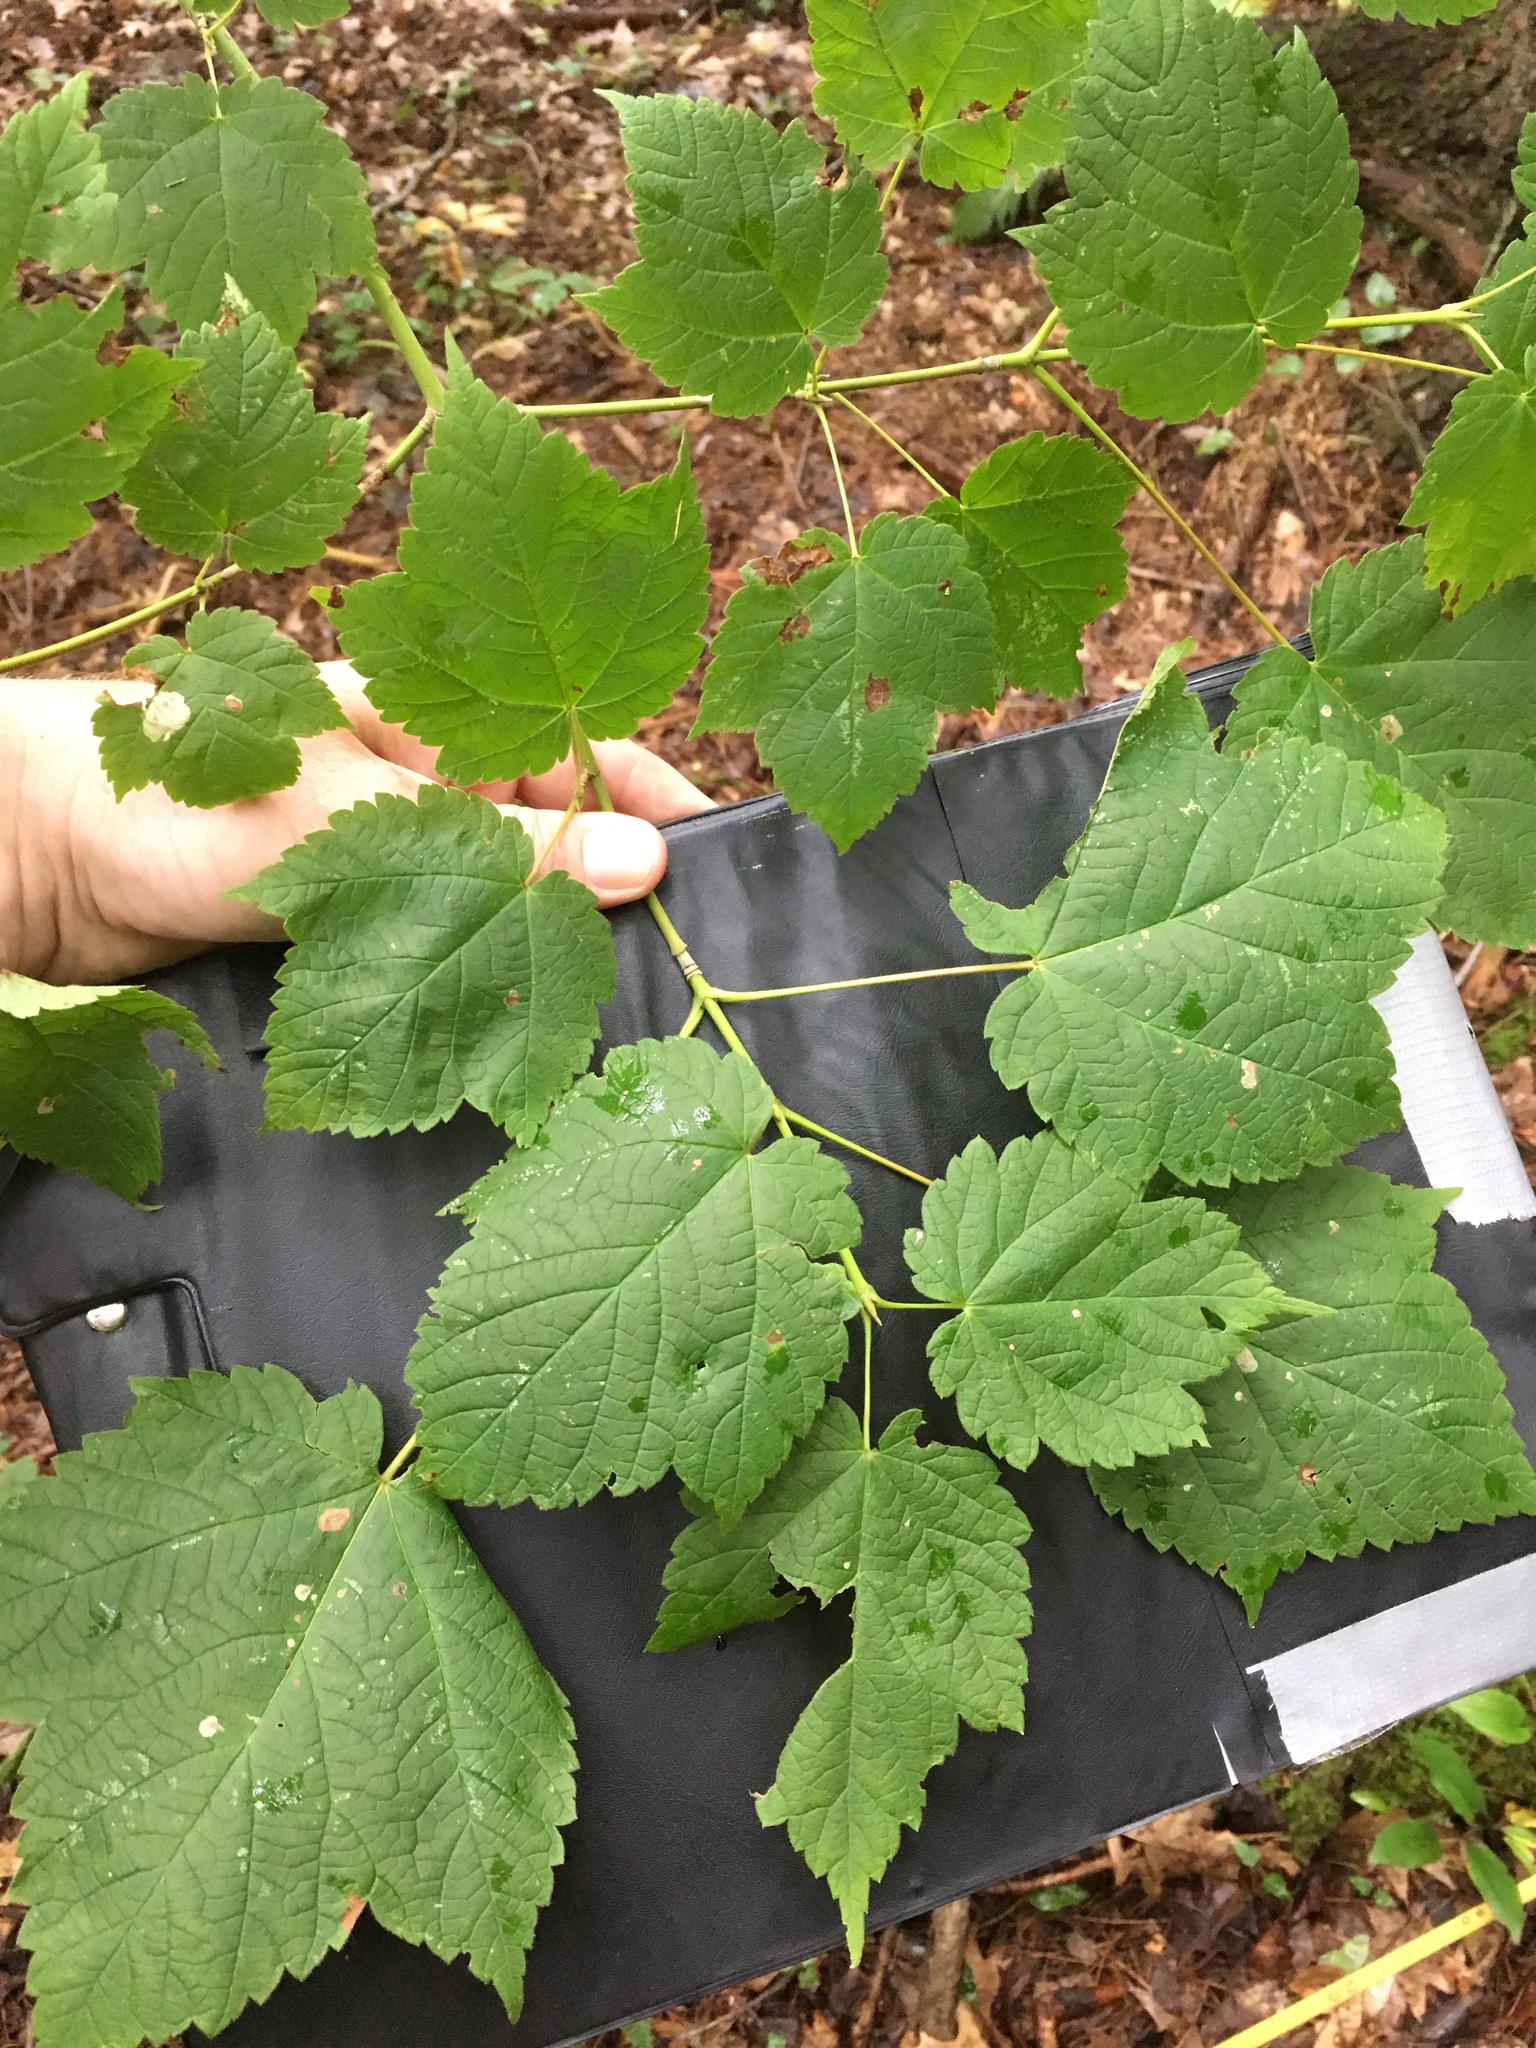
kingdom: Plantae
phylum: Tracheophyta
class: Magnoliopsida
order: Sapindales
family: Sapindaceae
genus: Acer
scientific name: Acer spicatum
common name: Mountain maple
